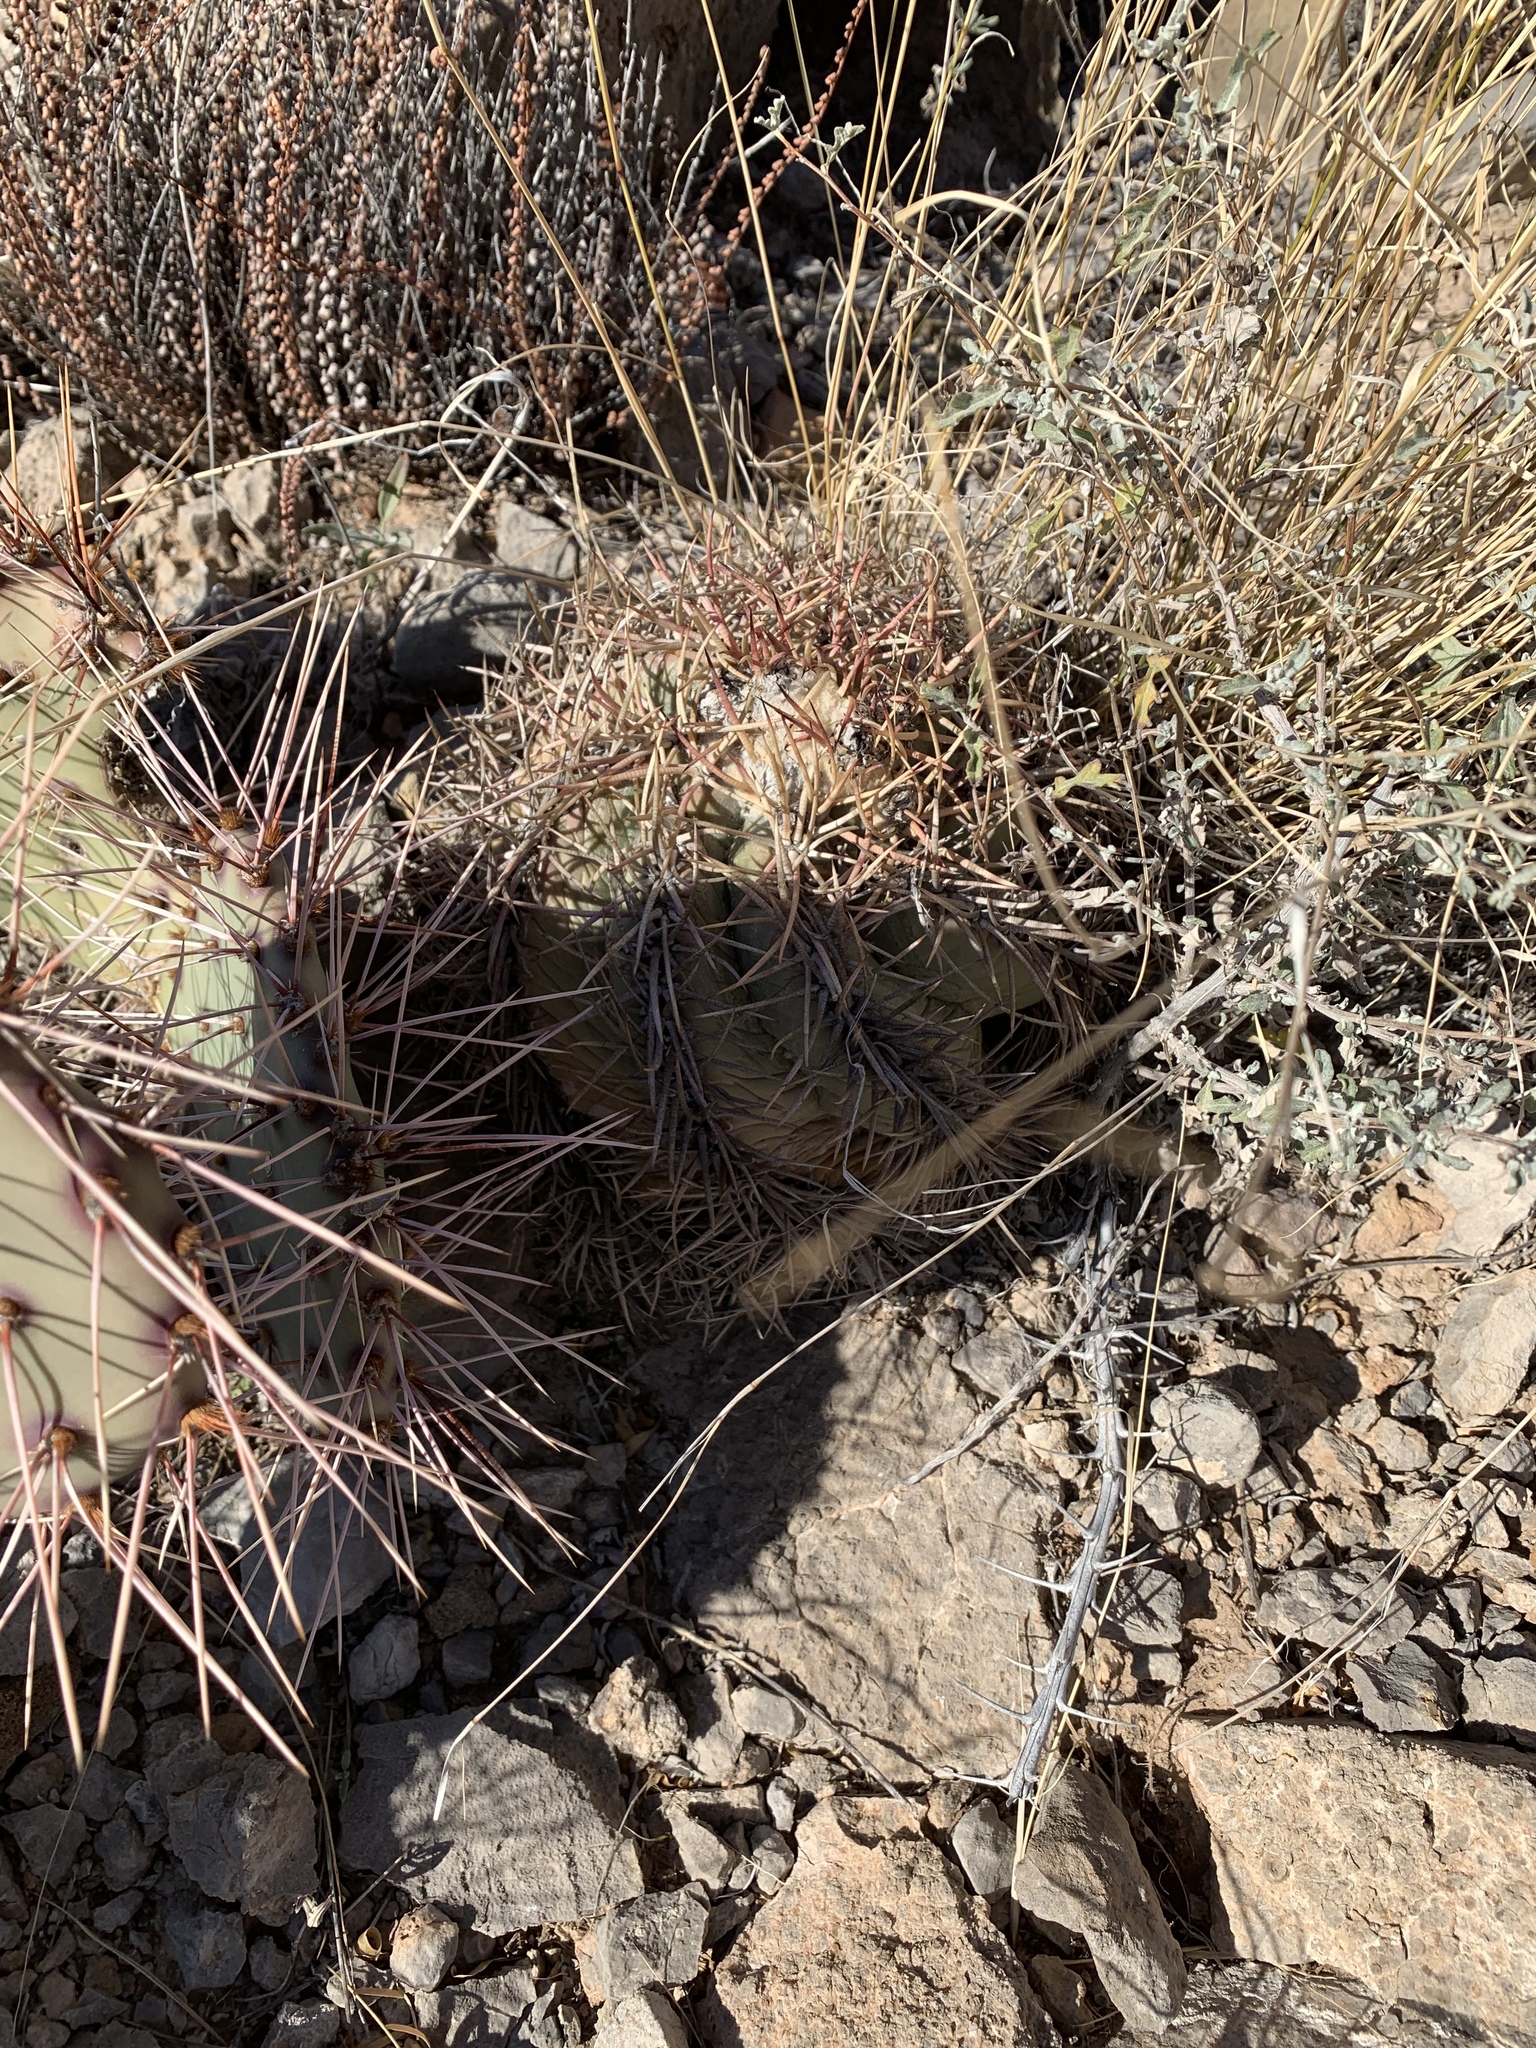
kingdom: Plantae
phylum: Tracheophyta
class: Magnoliopsida
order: Caryophyllales
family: Cactaceae
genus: Echinocactus
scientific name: Echinocactus horizonthalonius
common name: Devilshead
